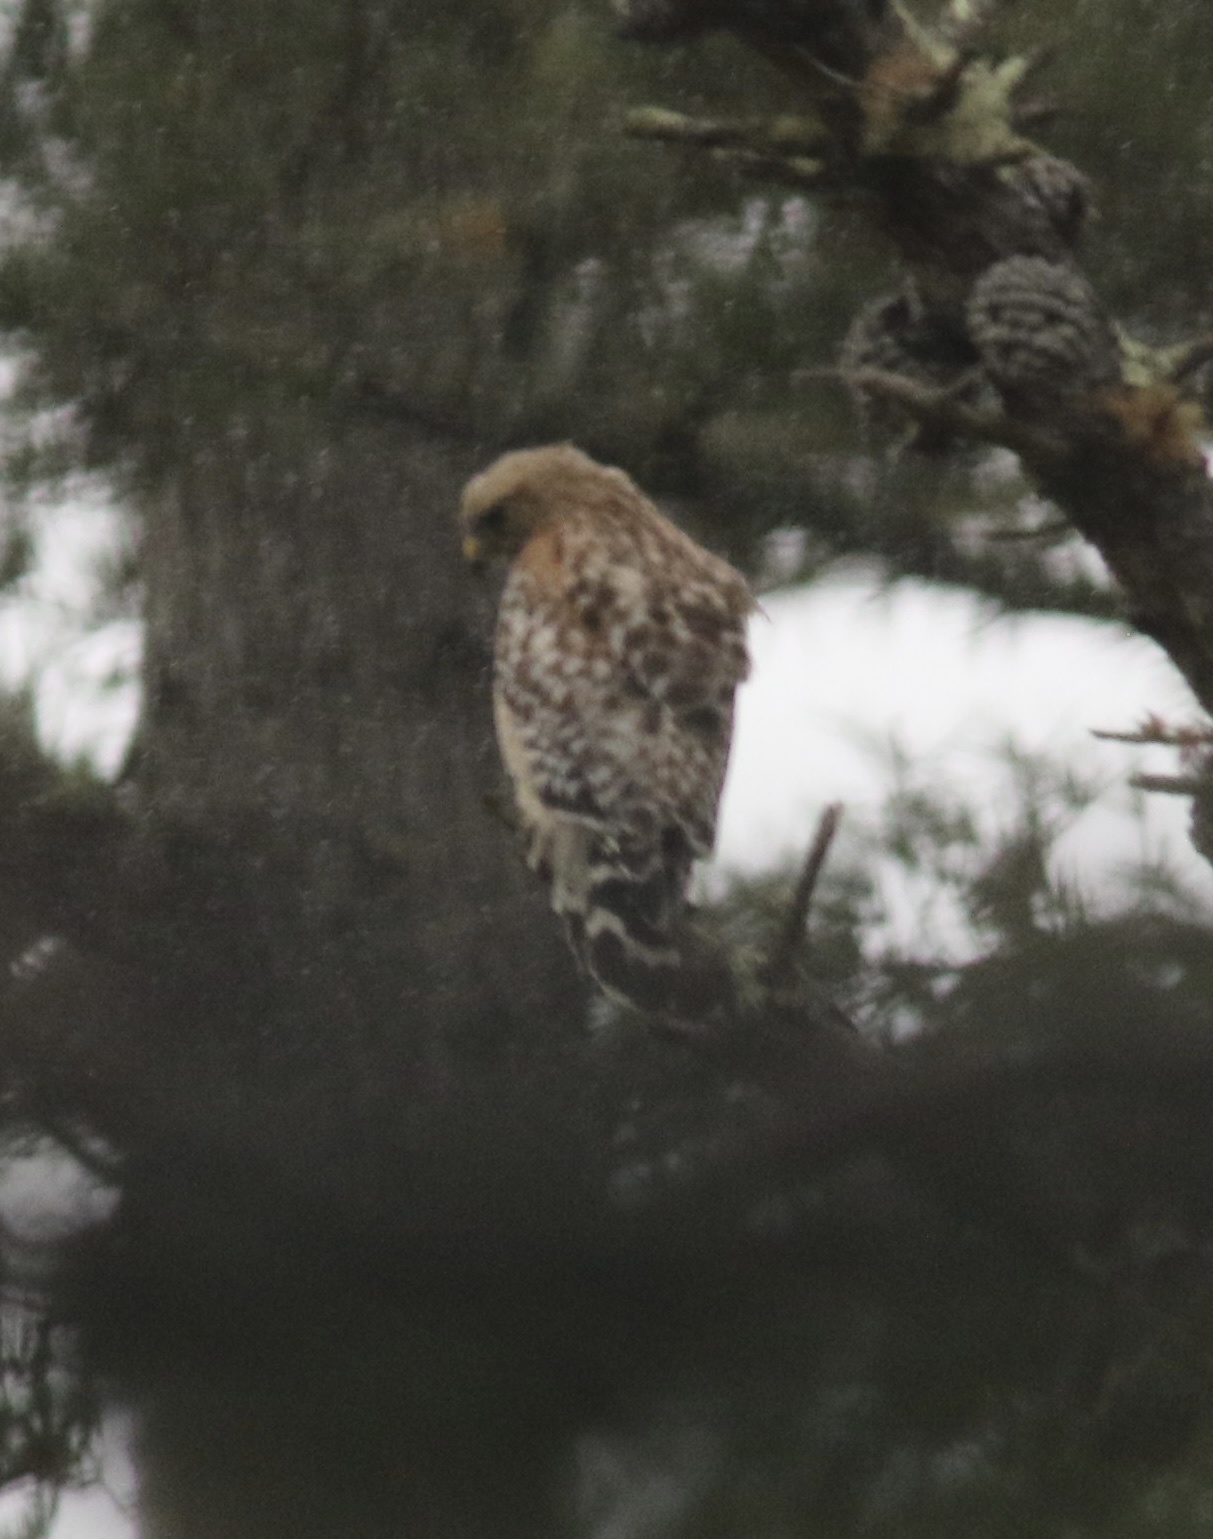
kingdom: Animalia
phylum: Chordata
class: Aves
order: Accipitriformes
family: Accipitridae
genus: Buteo
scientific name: Buteo lineatus
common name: Red-shouldered hawk
